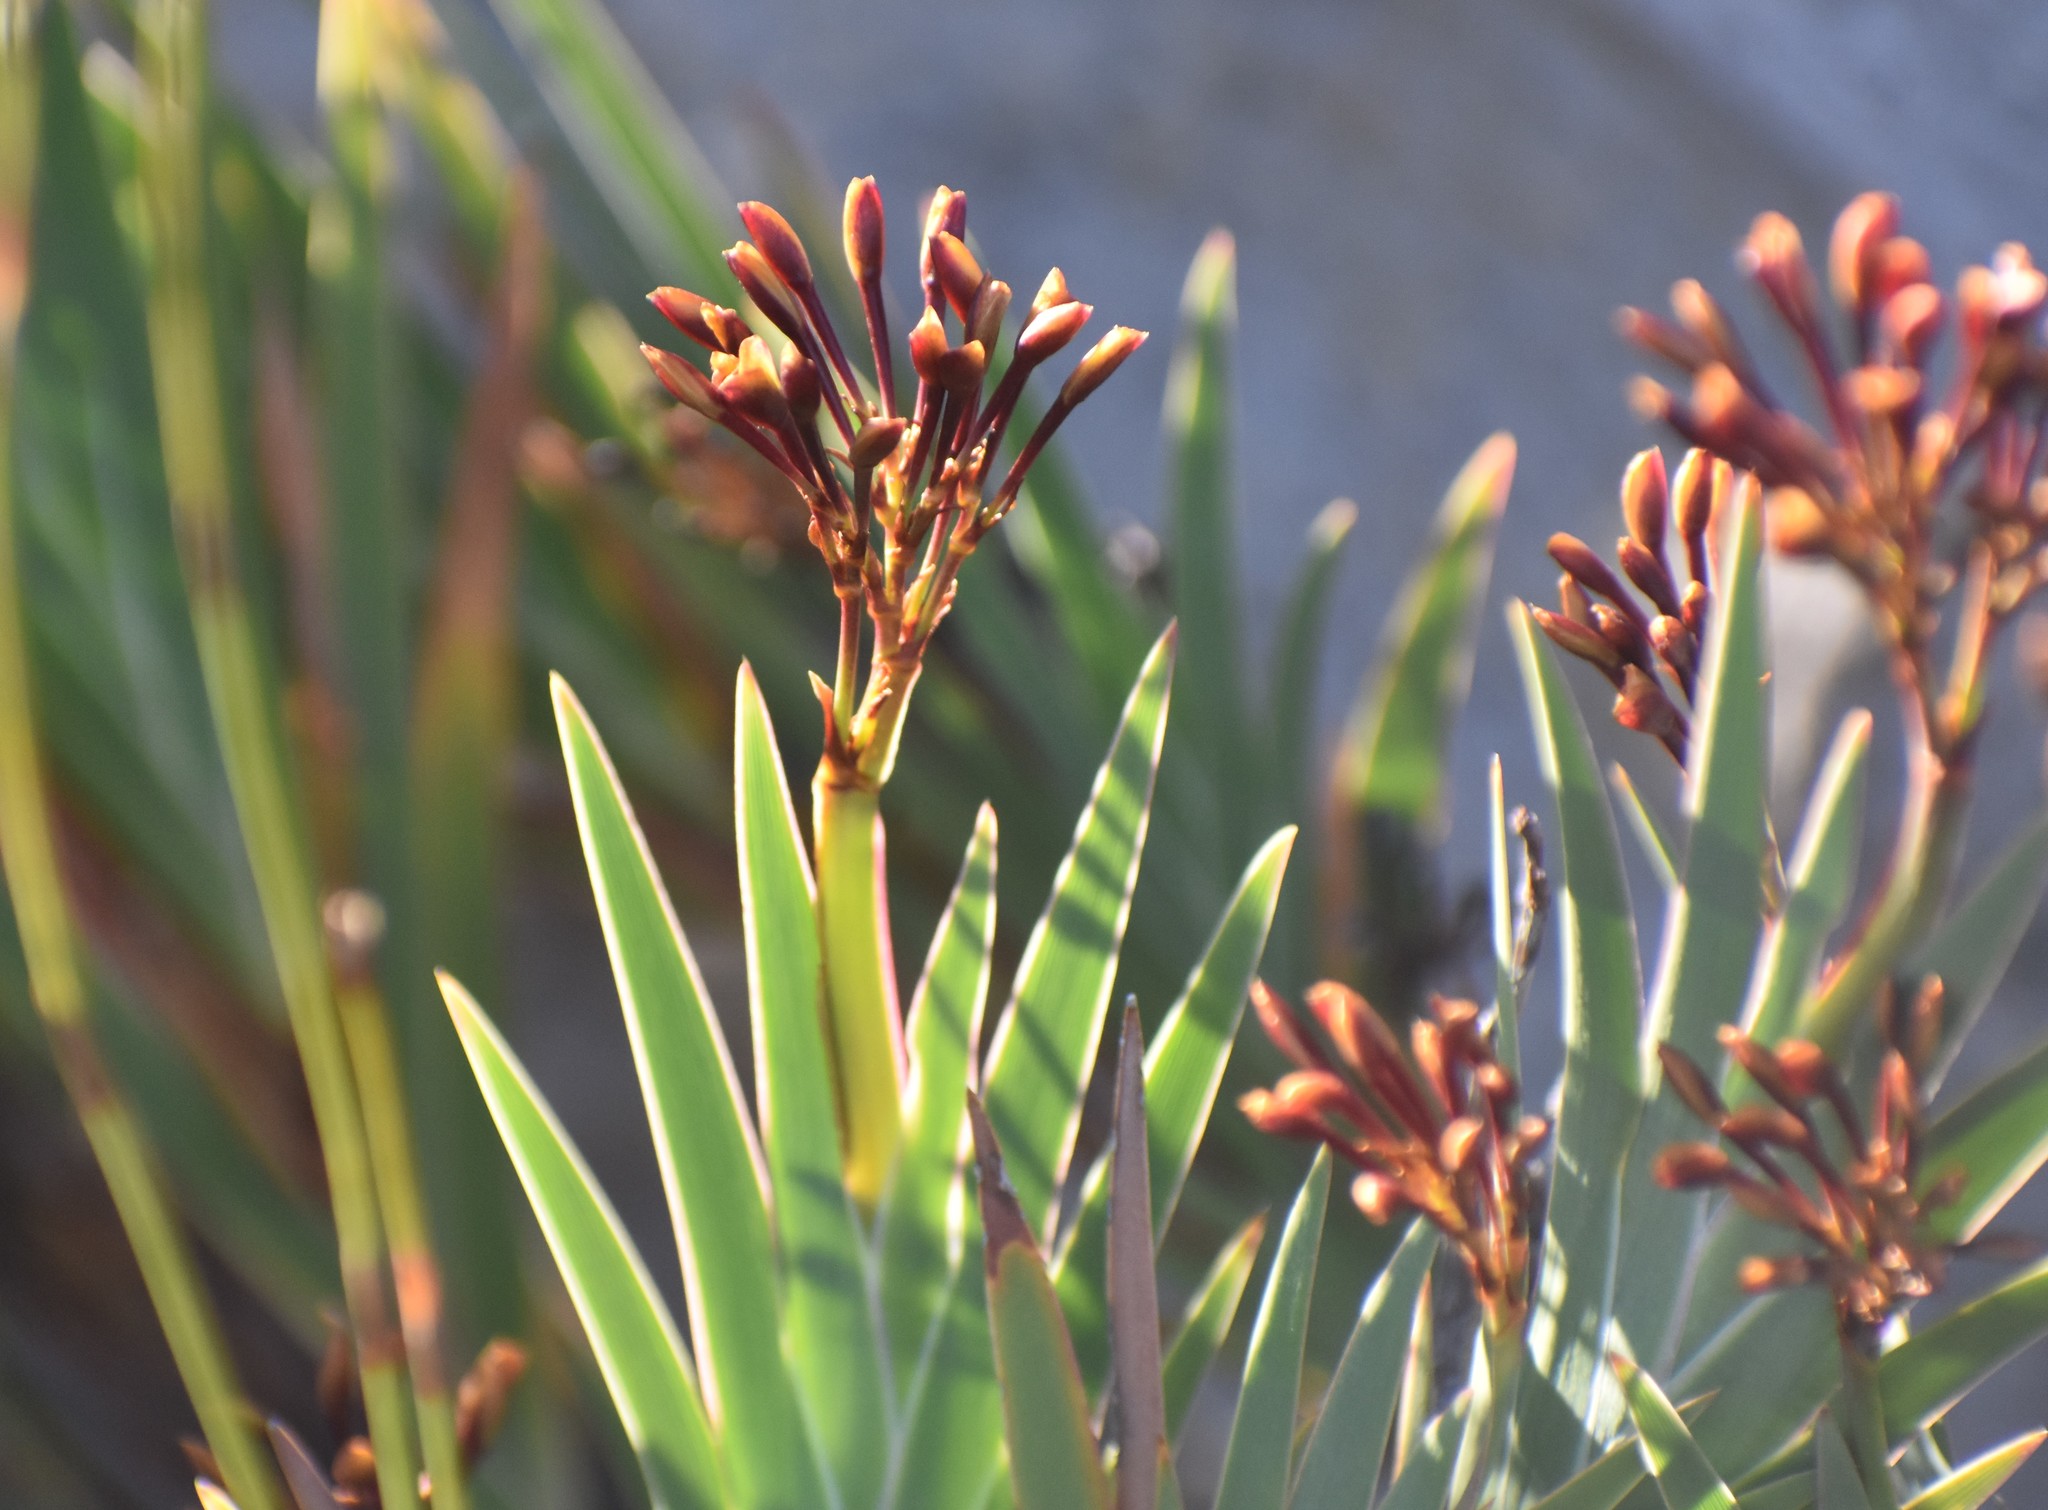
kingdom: Plantae
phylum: Tracheophyta
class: Liliopsida
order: Asparagales
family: Iridaceae
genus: Nivenia
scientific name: Nivenia binata
